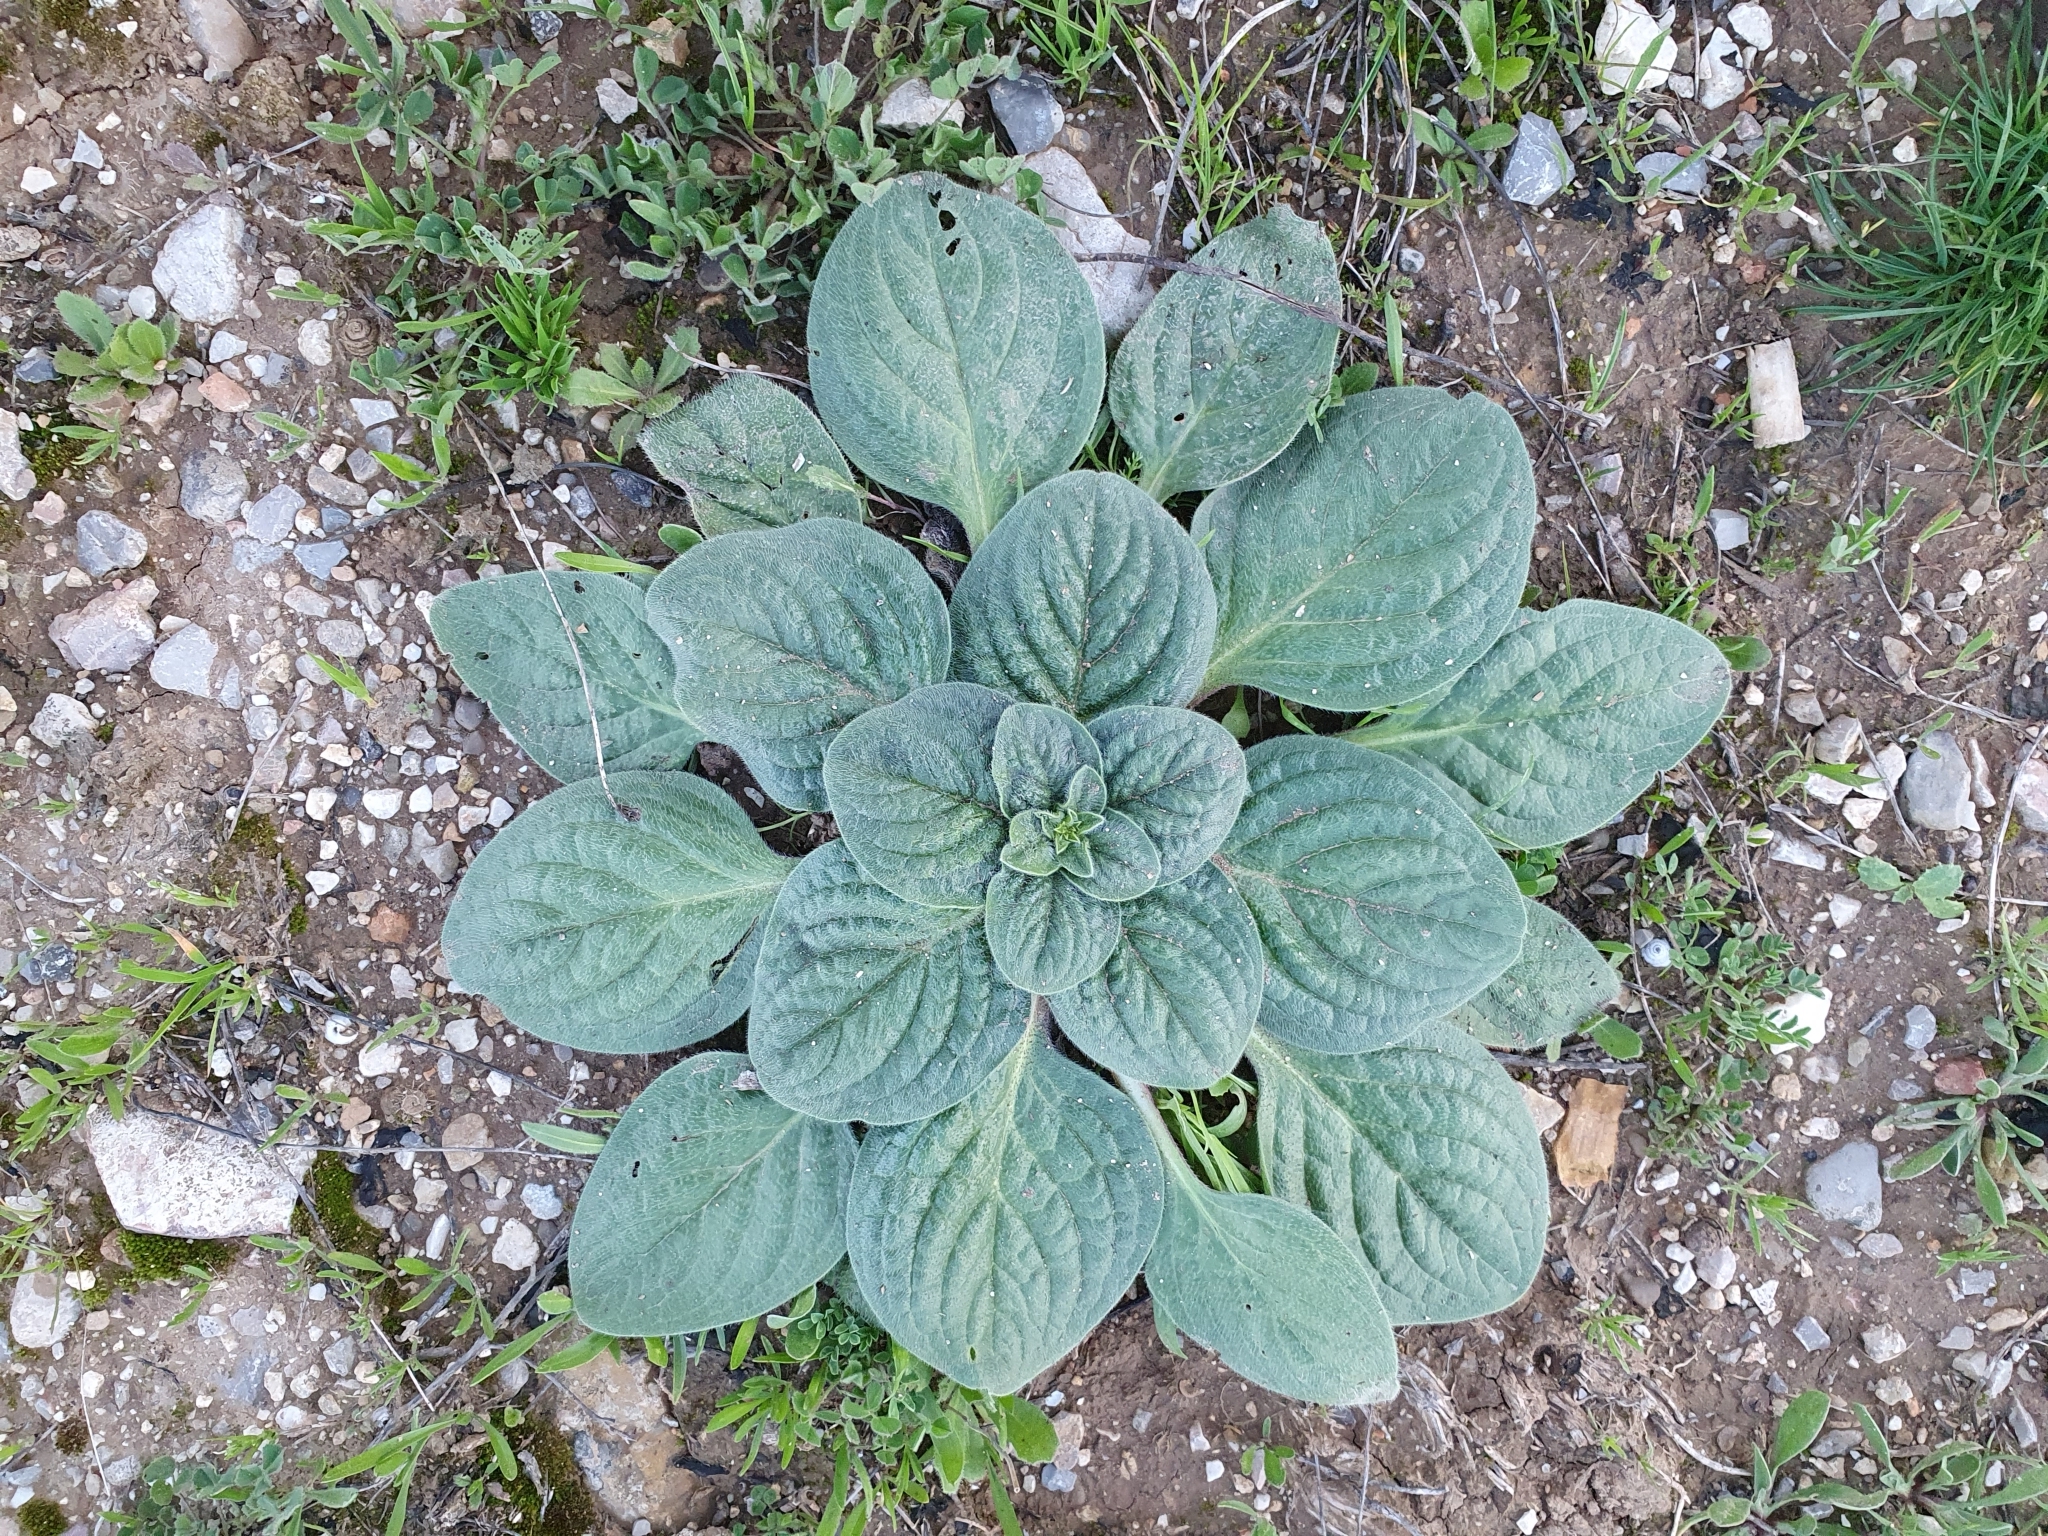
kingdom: Plantae
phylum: Tracheophyta
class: Magnoliopsida
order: Boraginales
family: Boraginaceae
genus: Echium
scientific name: Echium plantagineum
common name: Purple viper's-bugloss
